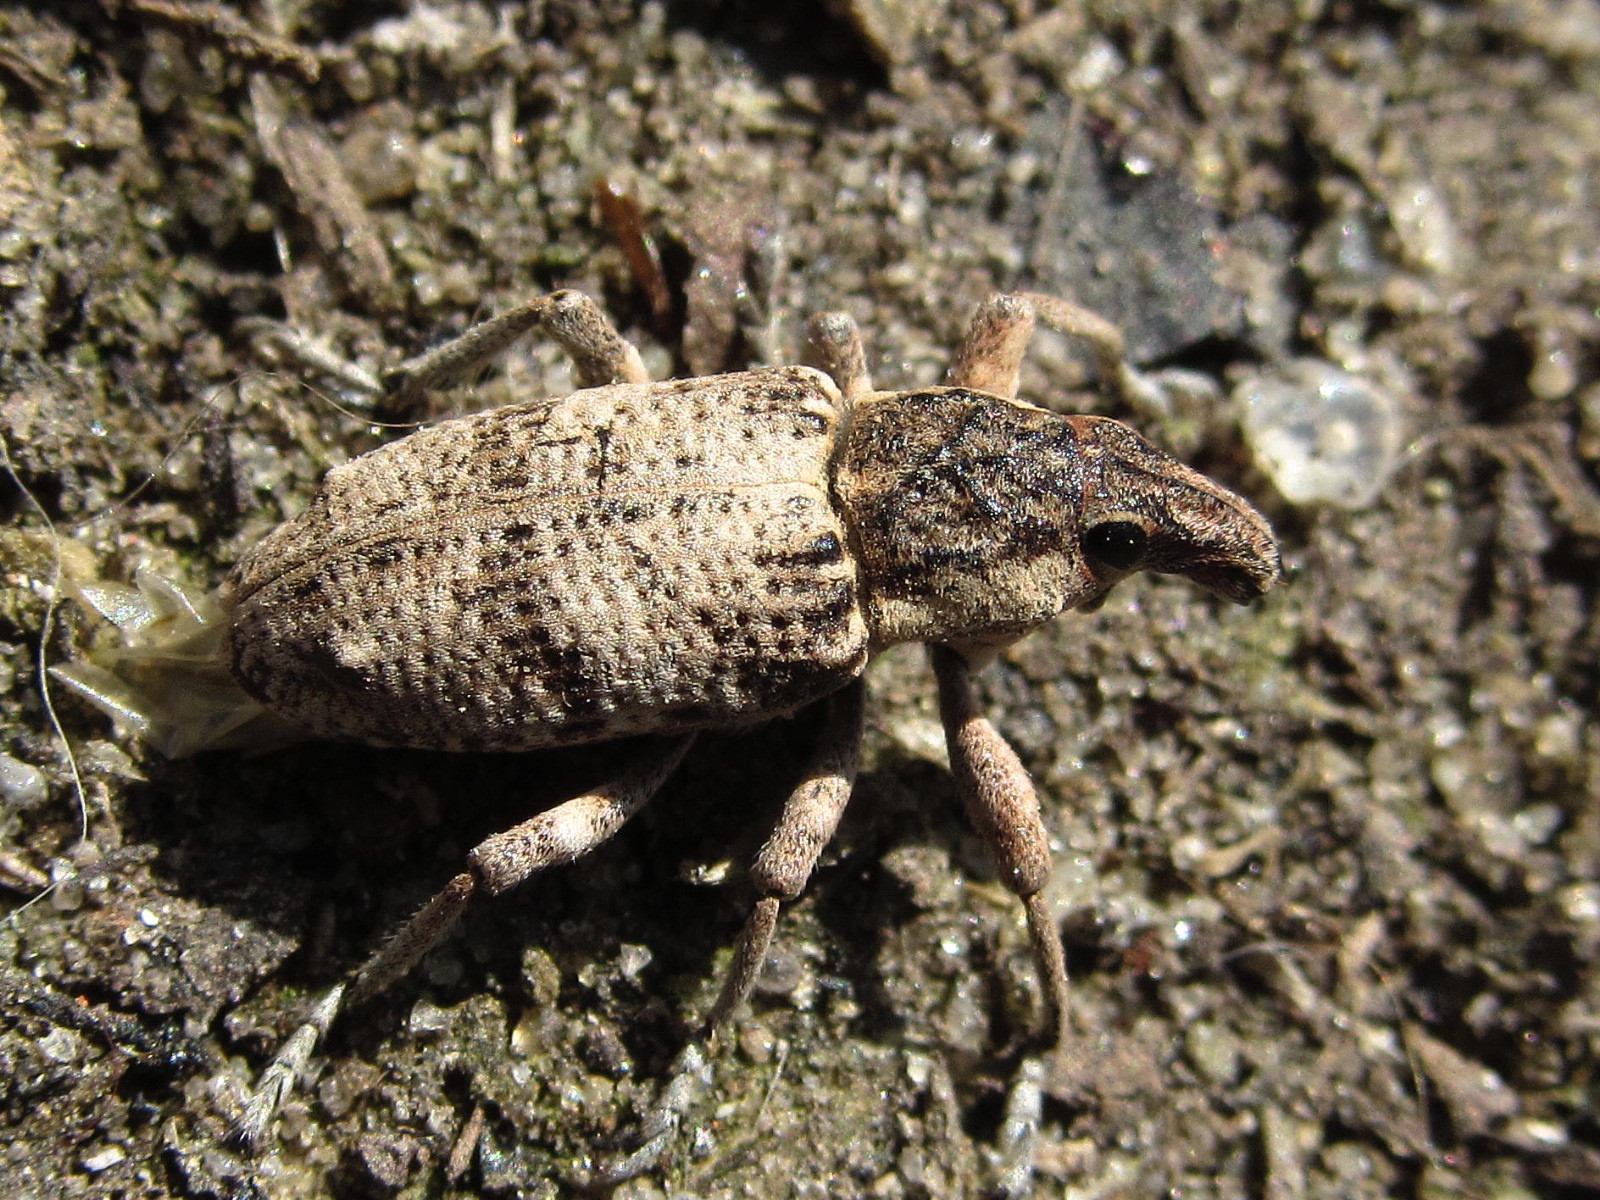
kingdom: Animalia
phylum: Arthropoda
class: Insecta
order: Coleoptera
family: Curculionidae
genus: Bothynoderes
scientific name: Bothynoderes foveocollis
